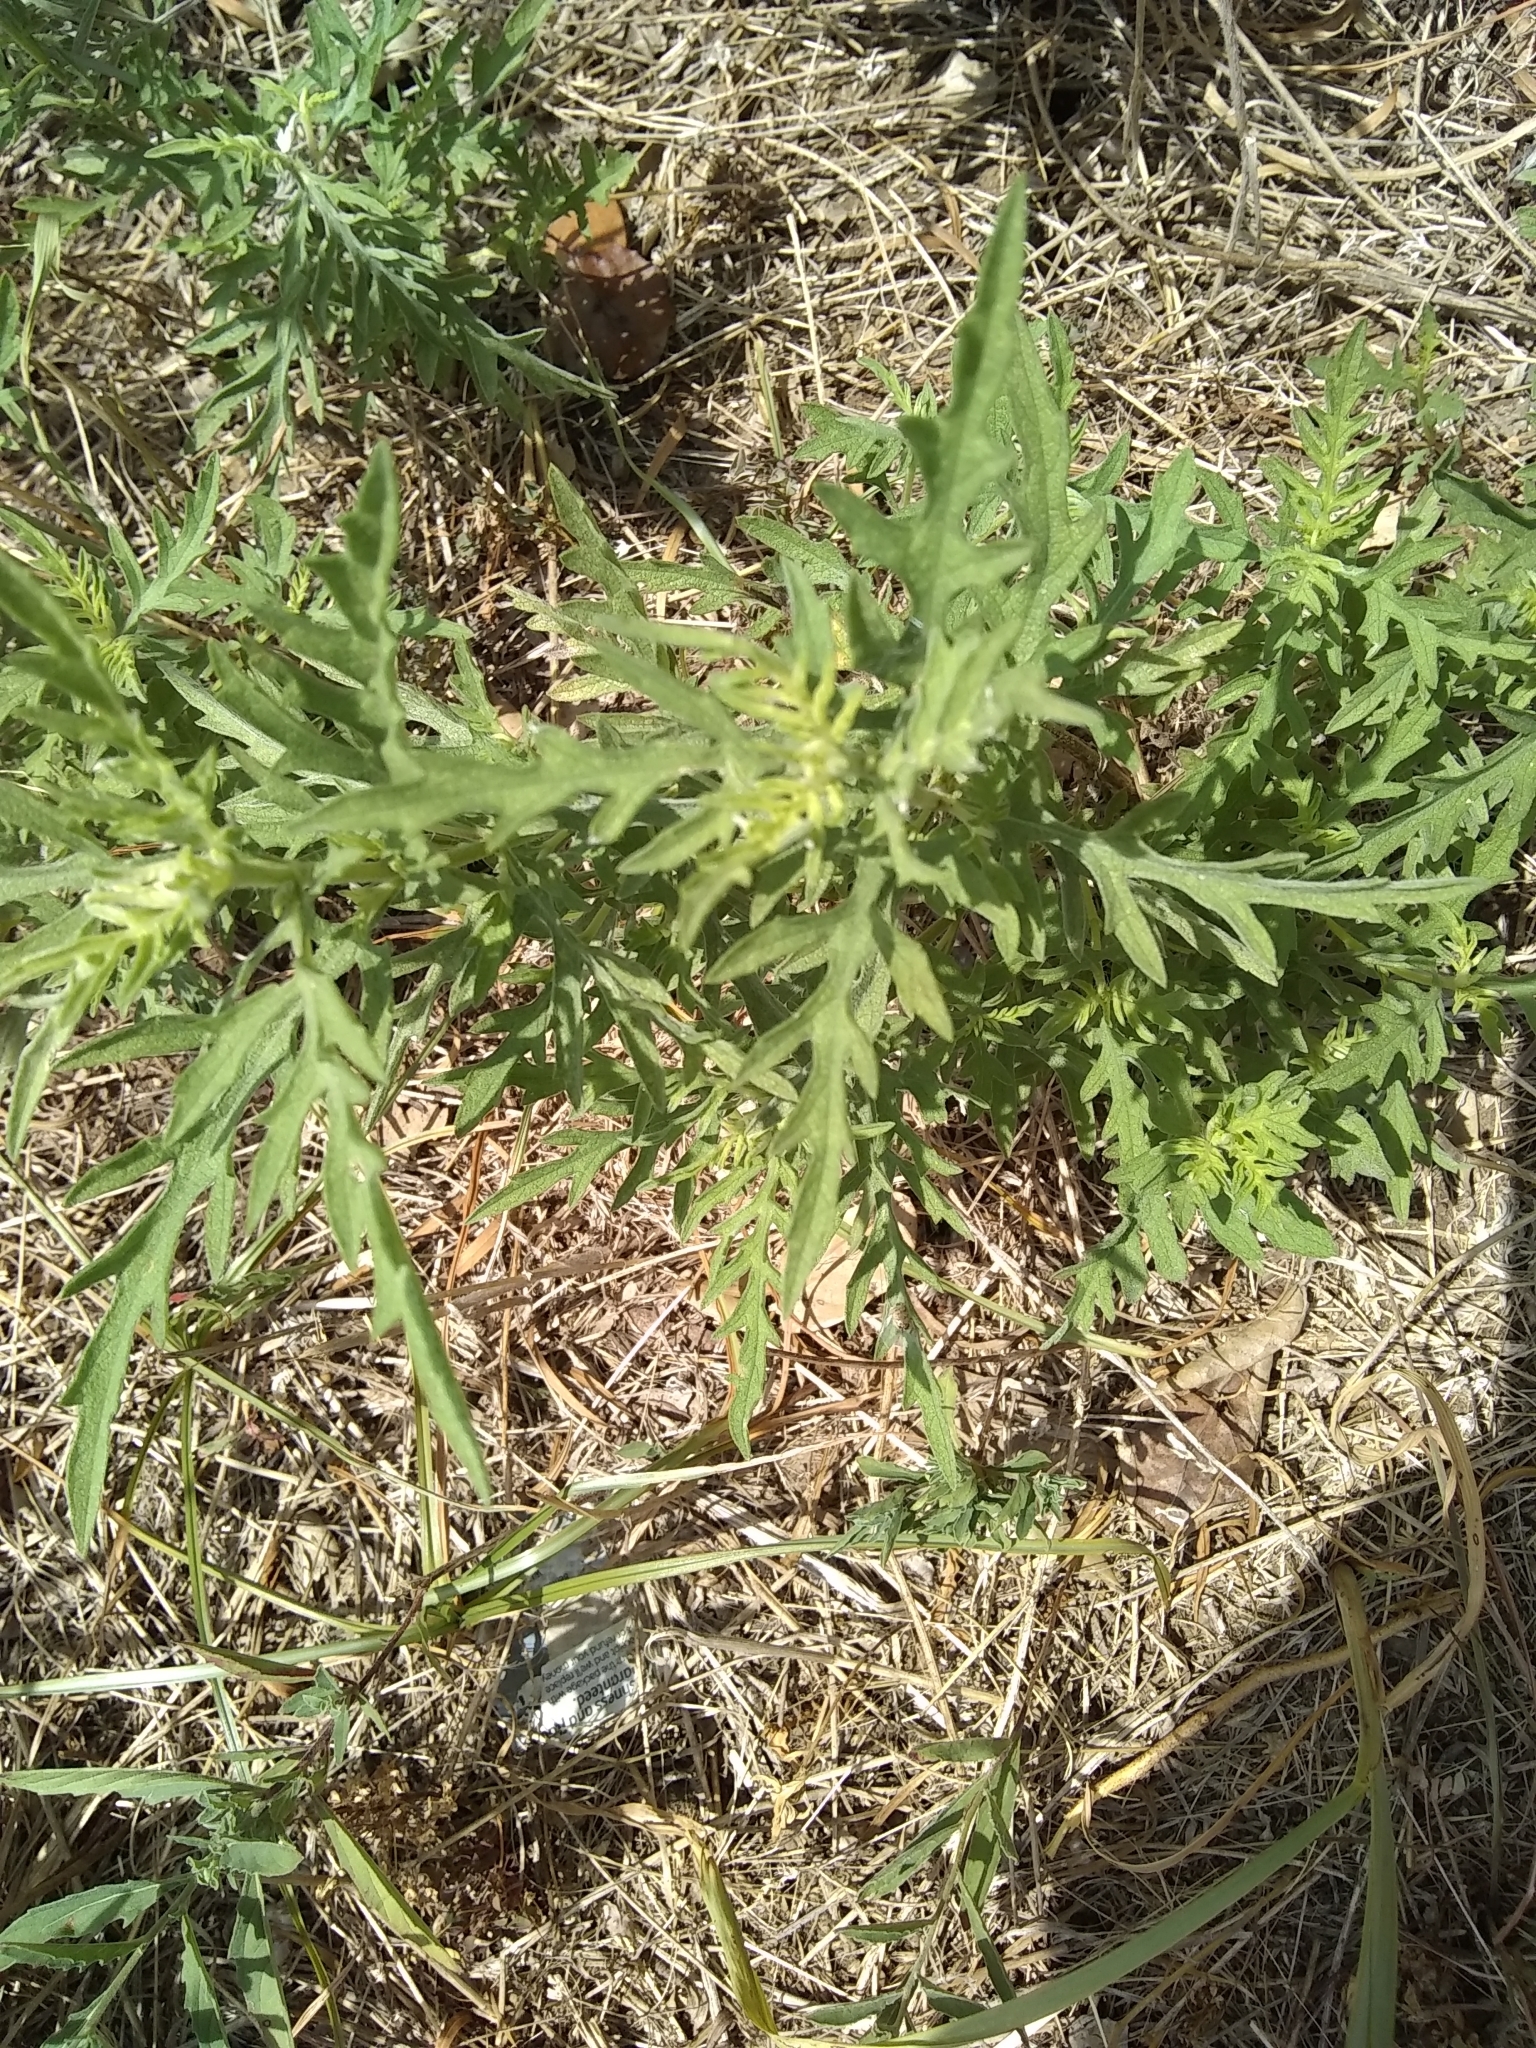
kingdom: Plantae
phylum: Tracheophyta
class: Magnoliopsida
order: Asterales
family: Asteraceae
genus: Ambrosia
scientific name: Ambrosia psilostachya
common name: Perennial ragweed
